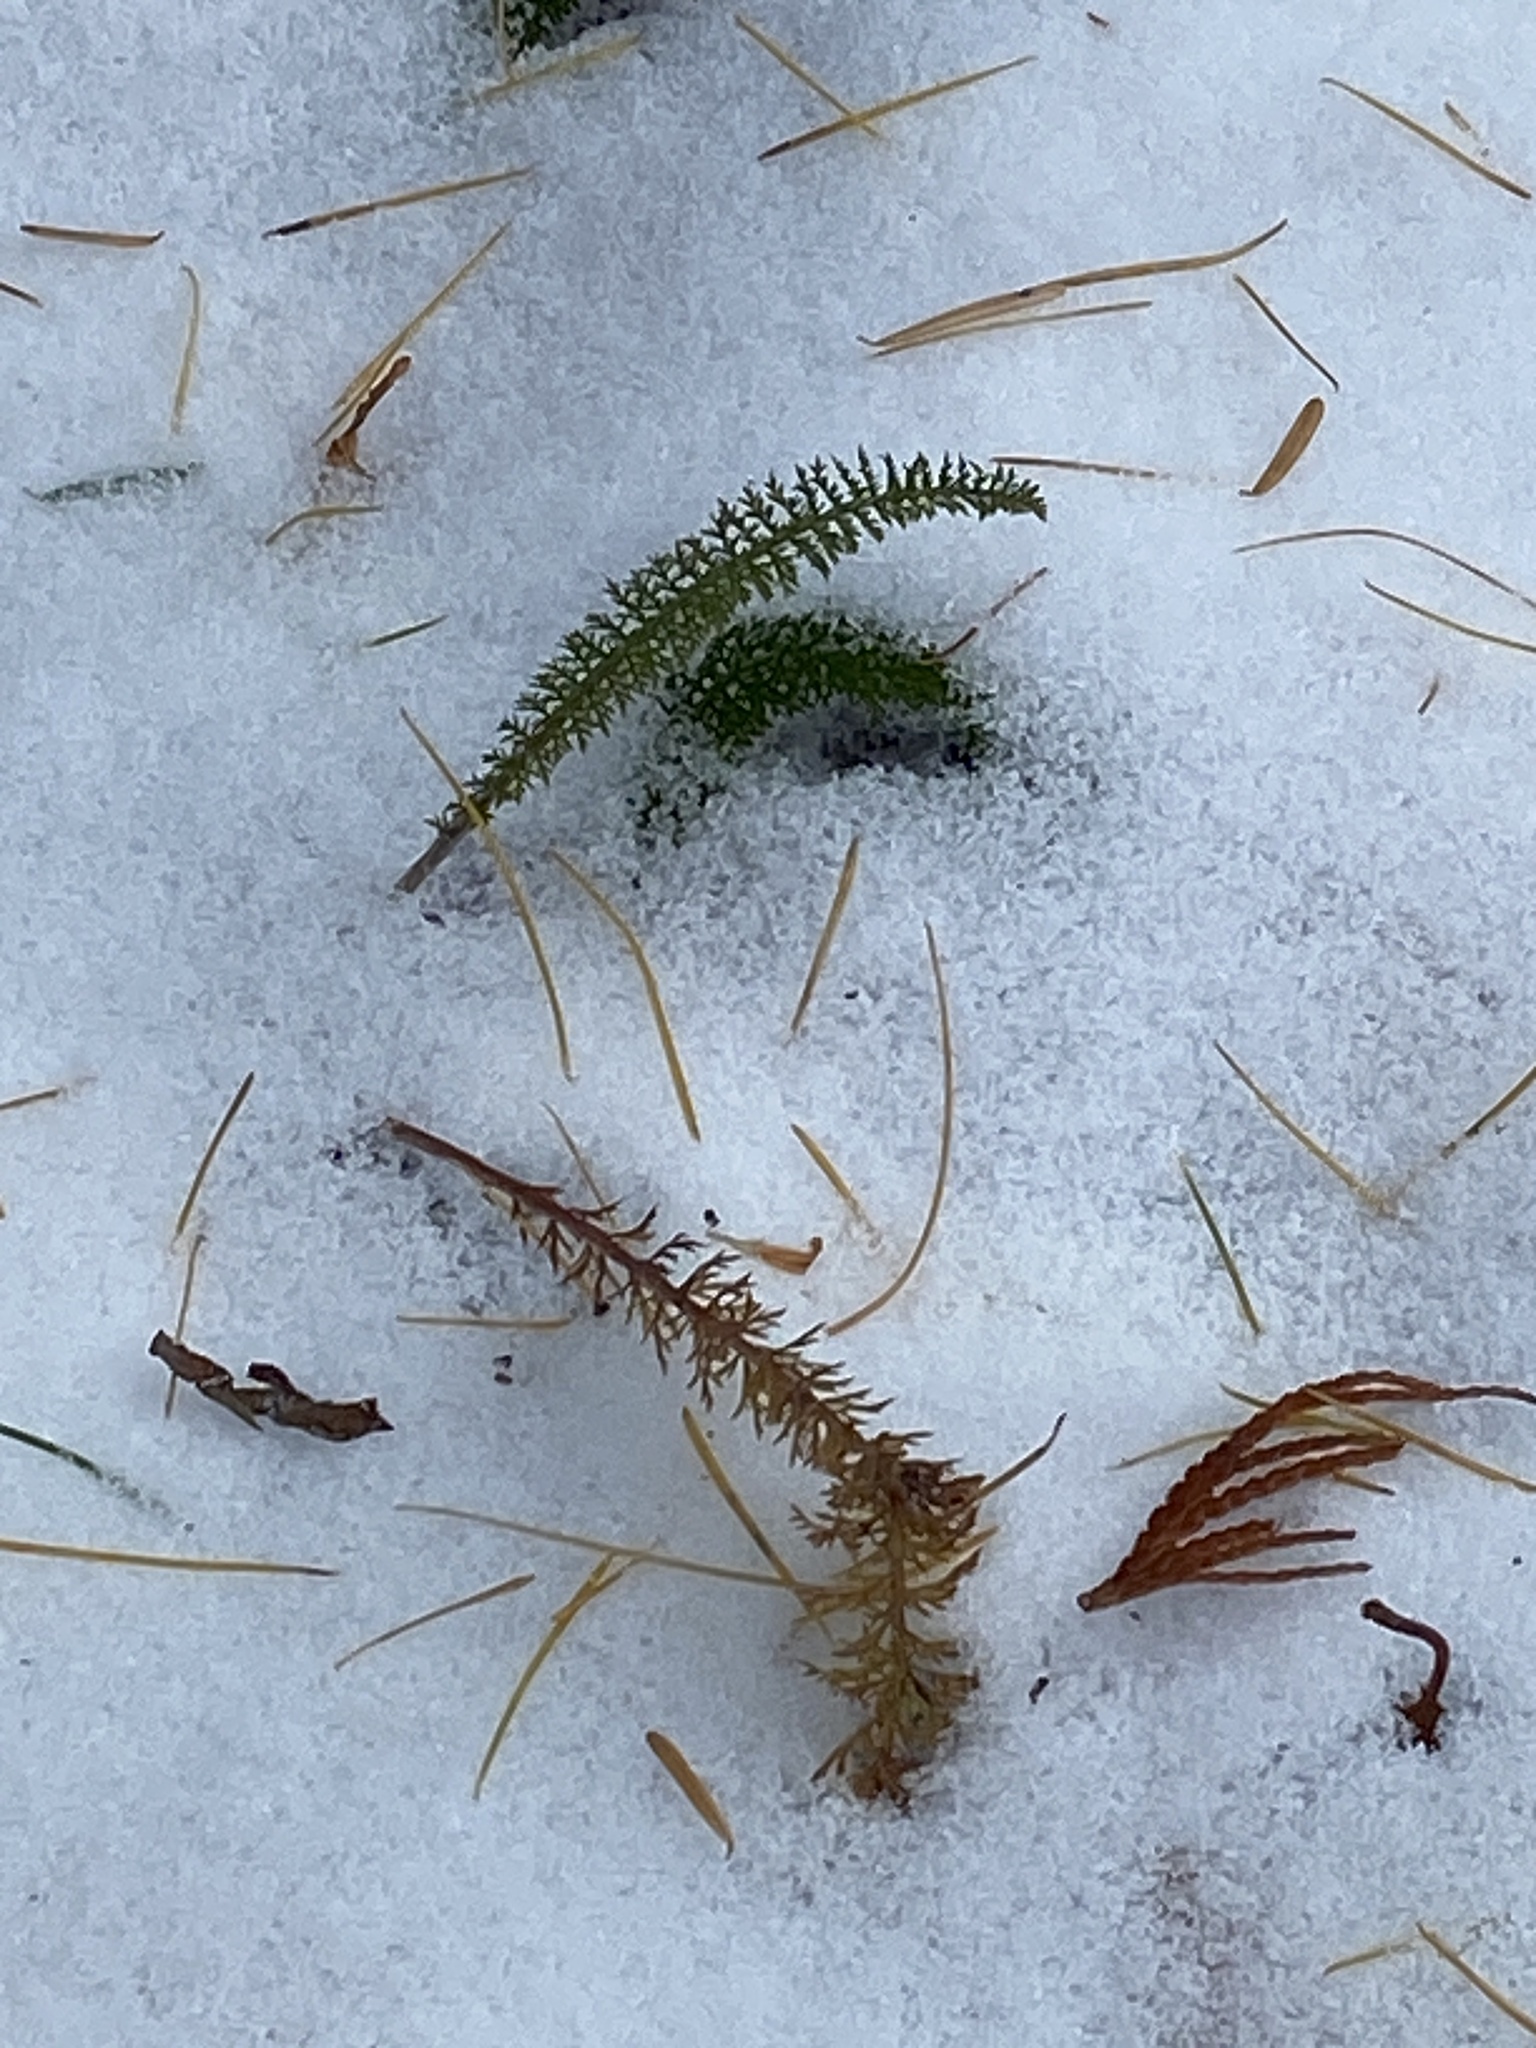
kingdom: Plantae
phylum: Tracheophyta
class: Magnoliopsida
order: Asterales
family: Asteraceae
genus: Achillea
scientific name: Achillea millefolium
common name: Yarrow
